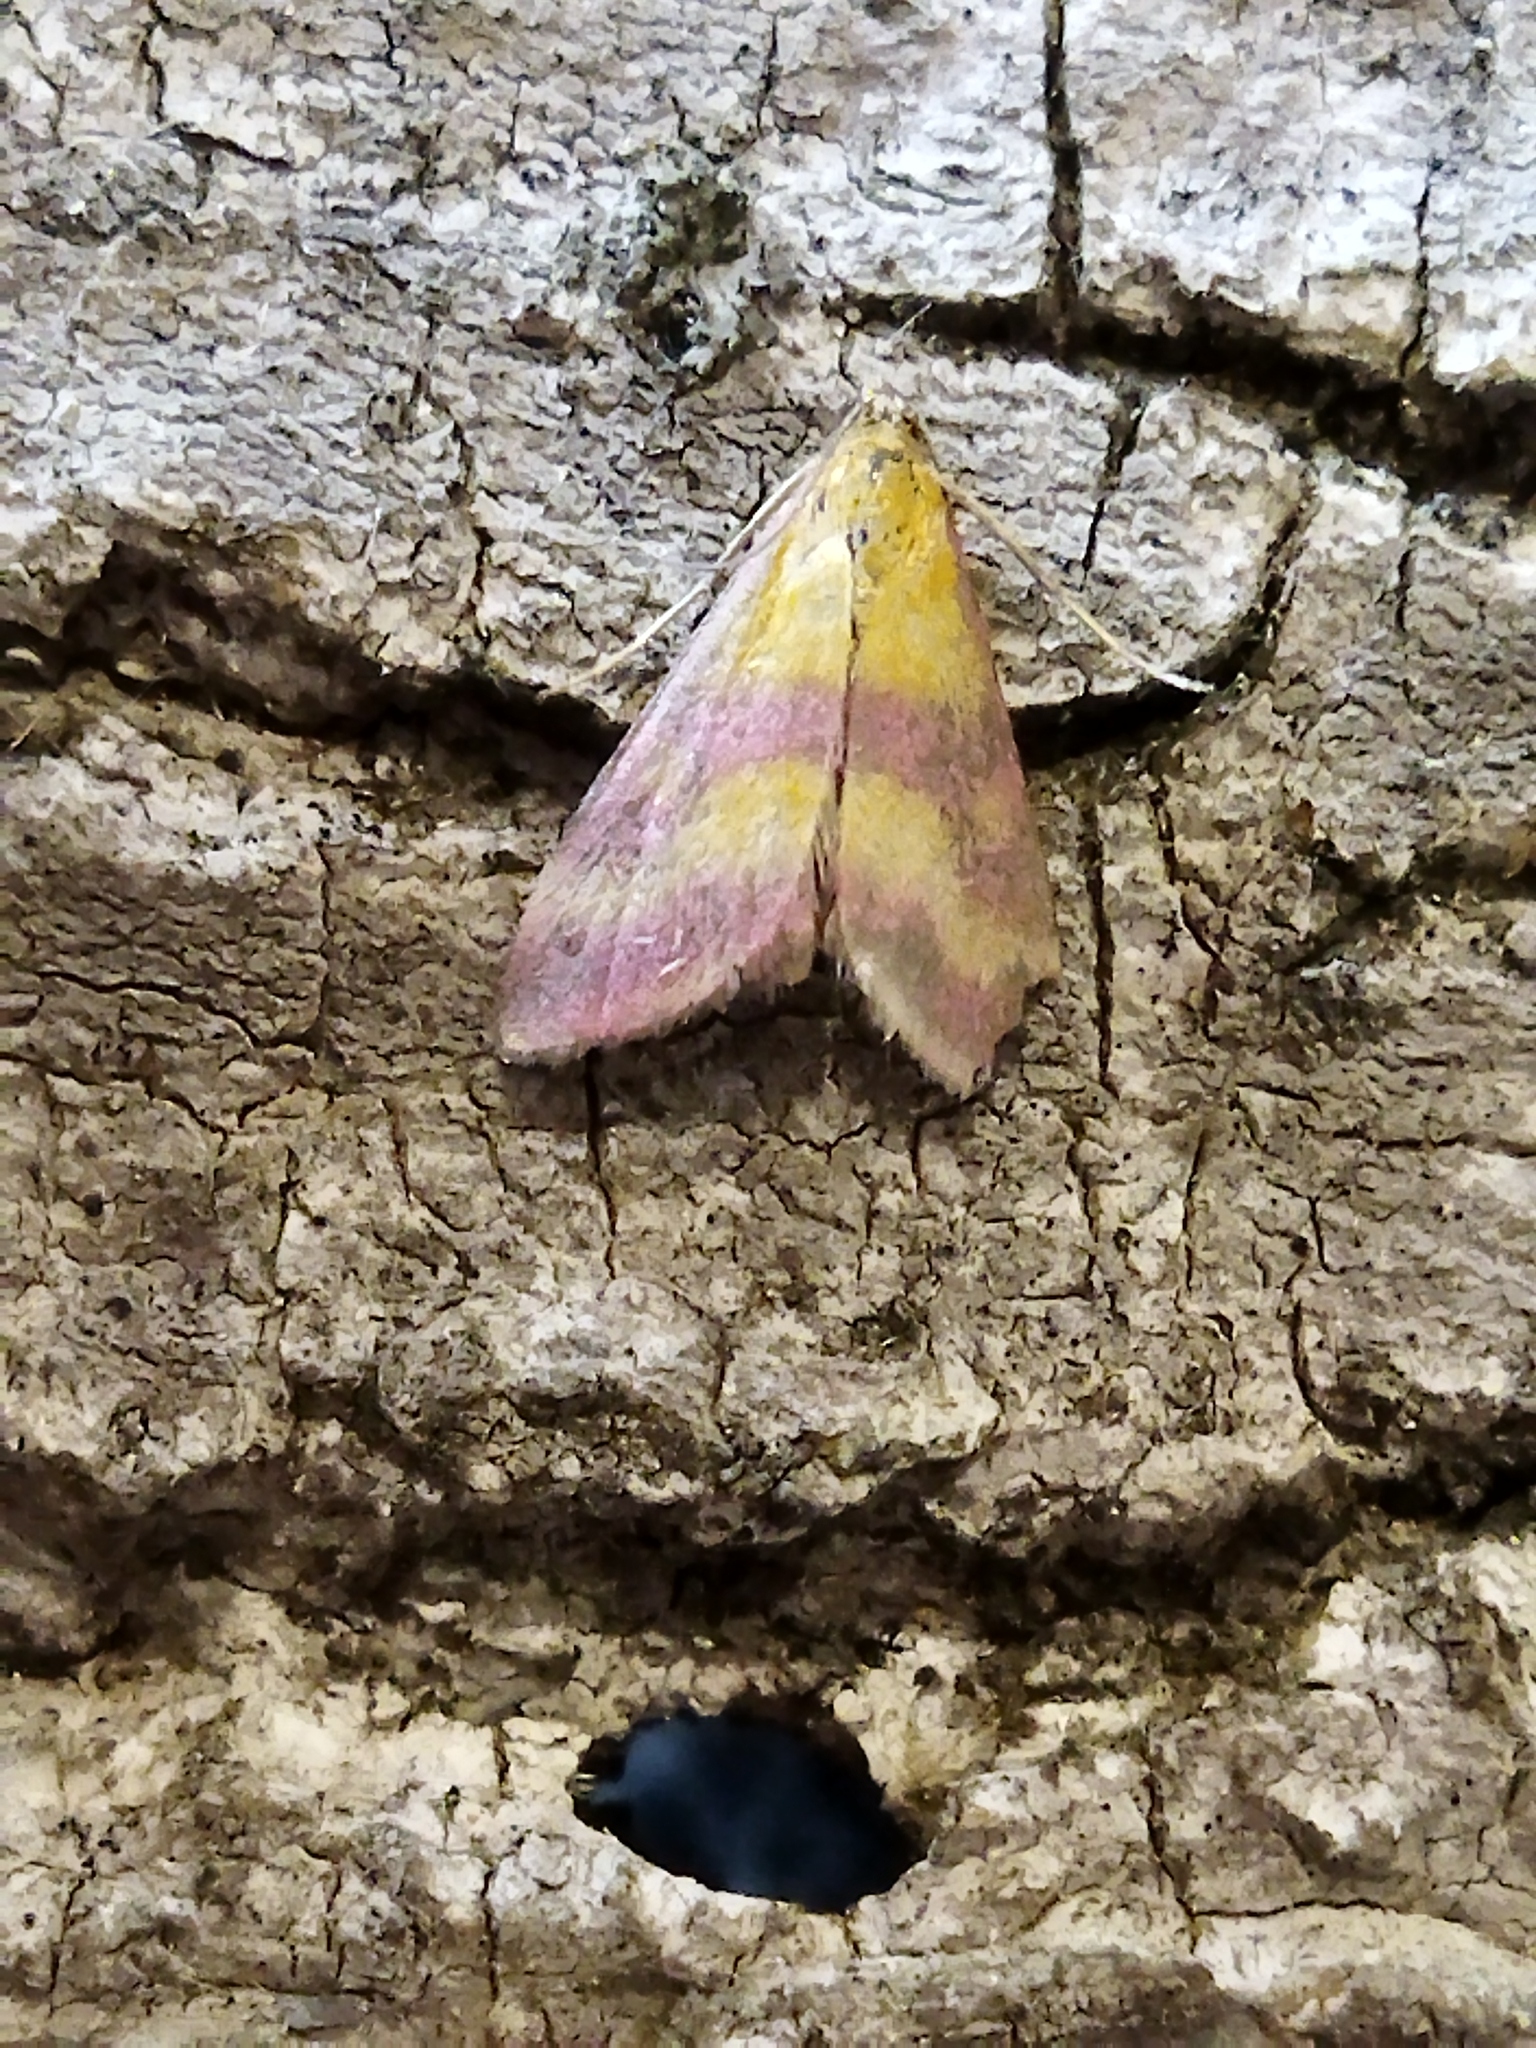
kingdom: Animalia
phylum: Arthropoda
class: Insecta
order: Lepidoptera
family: Crambidae
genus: Pyrausta
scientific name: Pyrausta sanguinalis
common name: Scarce crimson and gold
